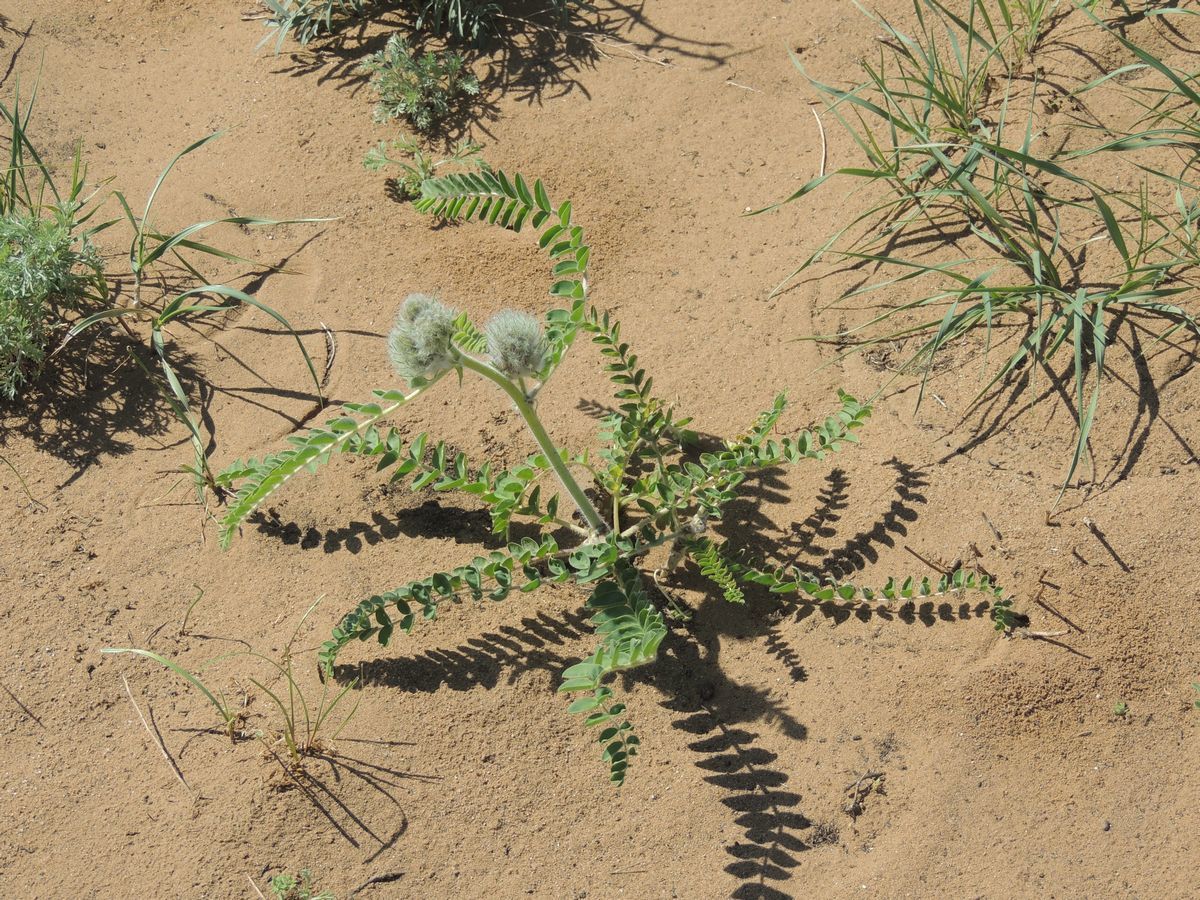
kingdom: Plantae
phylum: Tracheophyta
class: Magnoliopsida
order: Fabales
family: Fabaceae
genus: Astragalus
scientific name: Astragalus vulpinus
